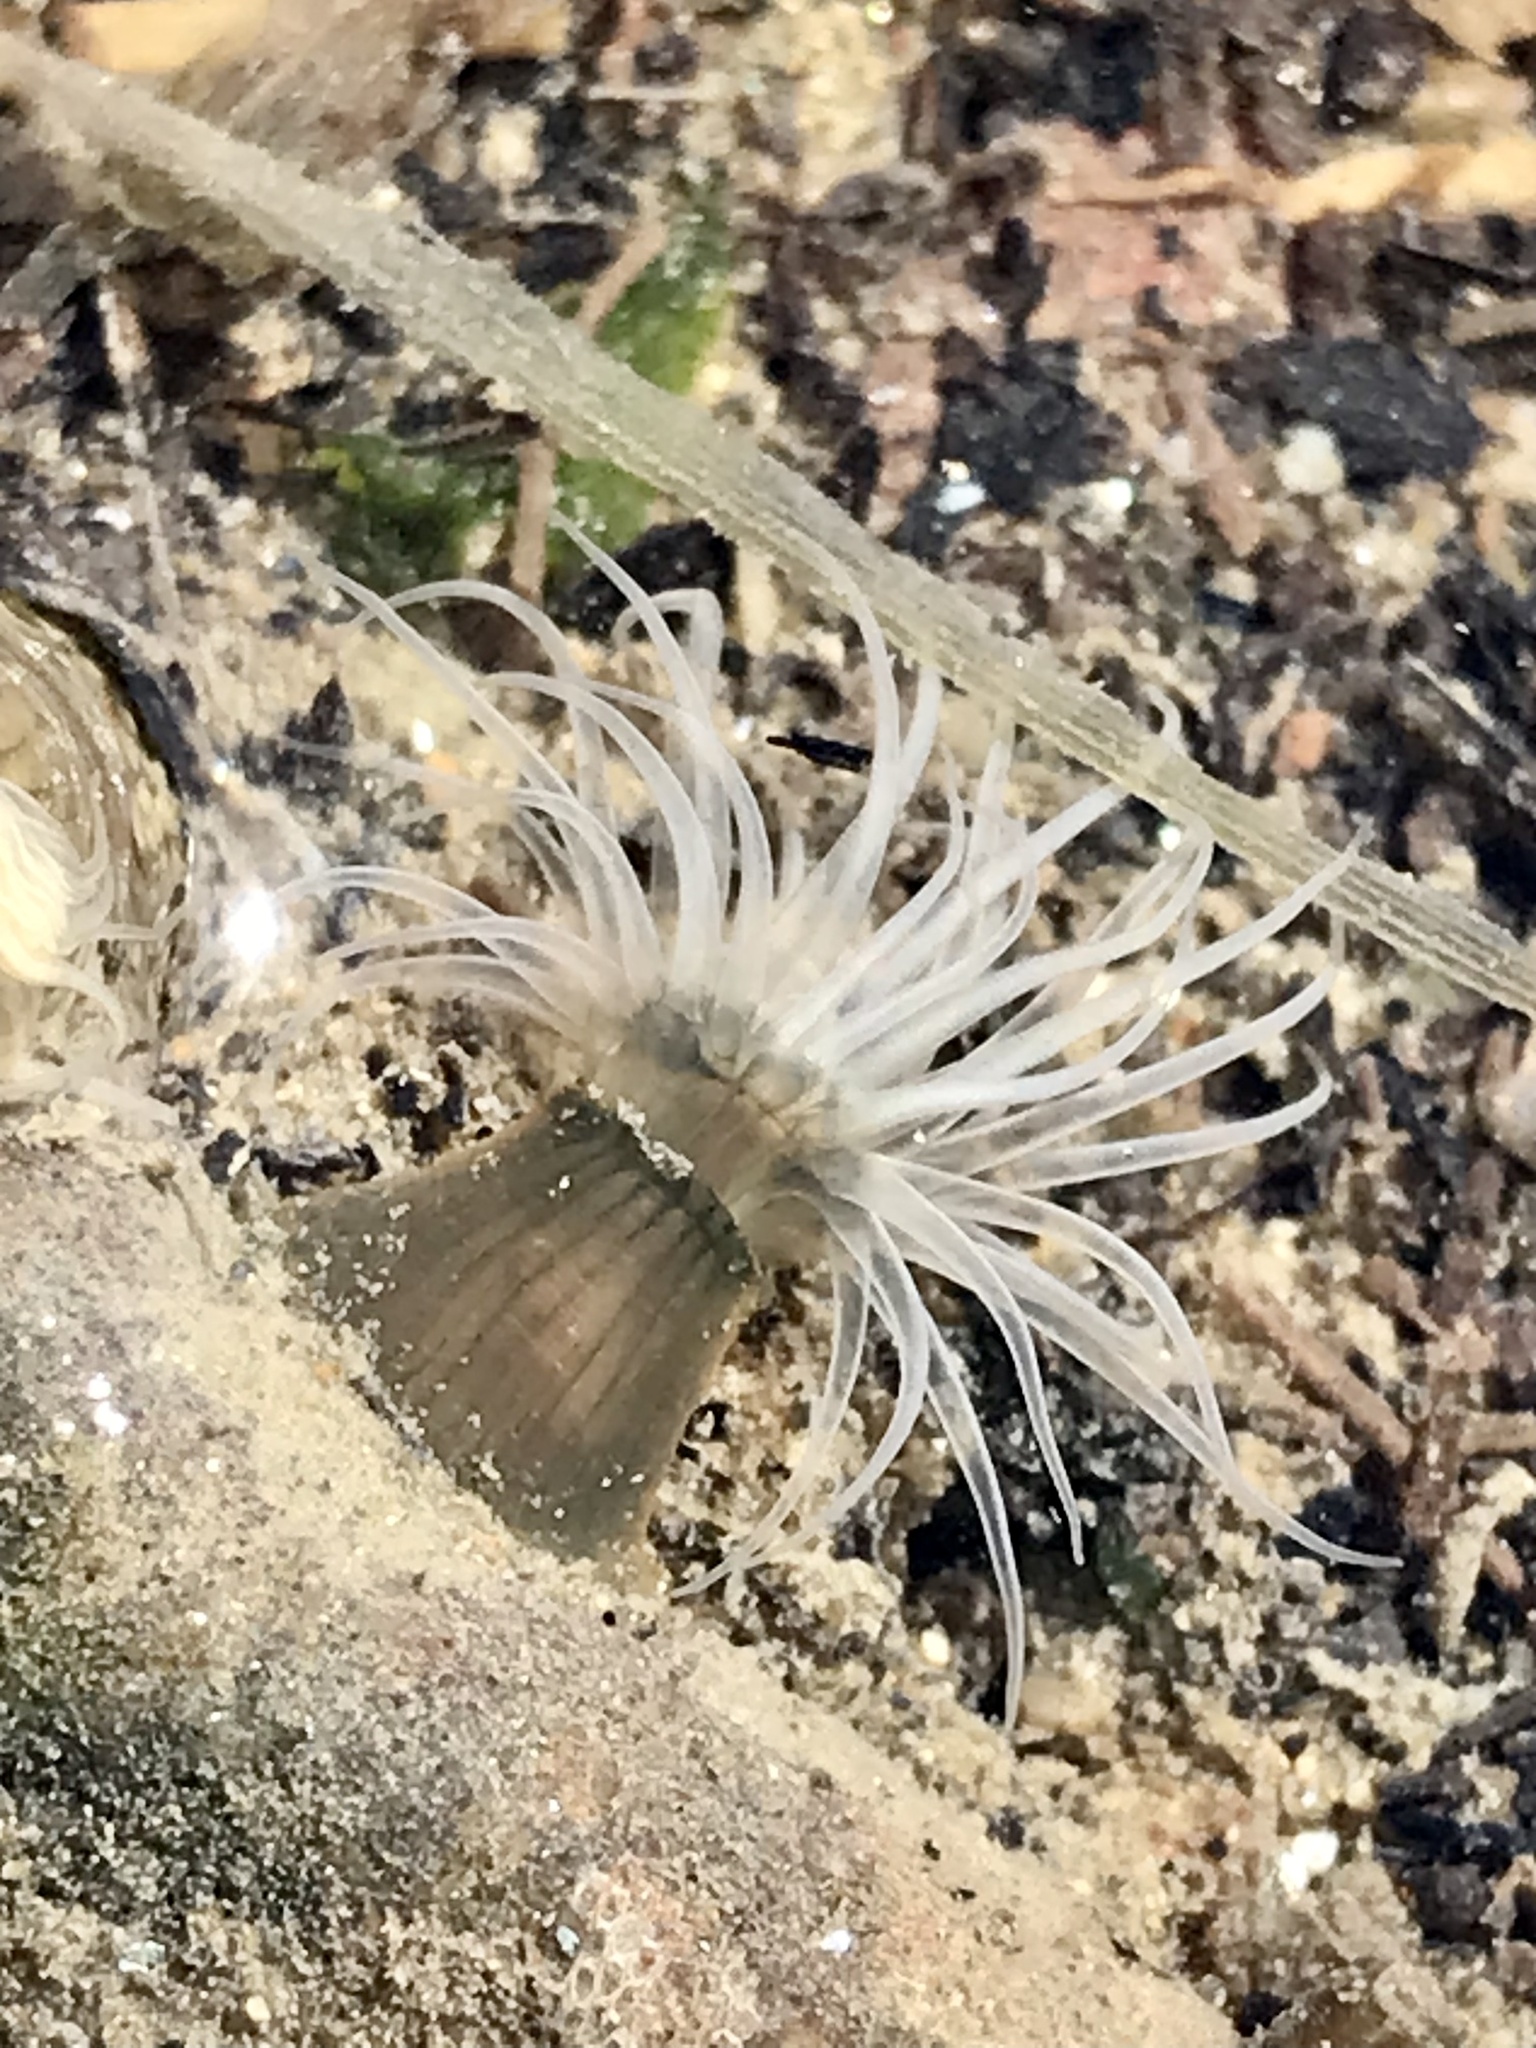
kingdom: Animalia
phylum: Cnidaria
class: Anthozoa
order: Actiniaria
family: Diadumenidae
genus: Diadumene
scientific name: Diadumene lineata
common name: Orange-striped anemone
